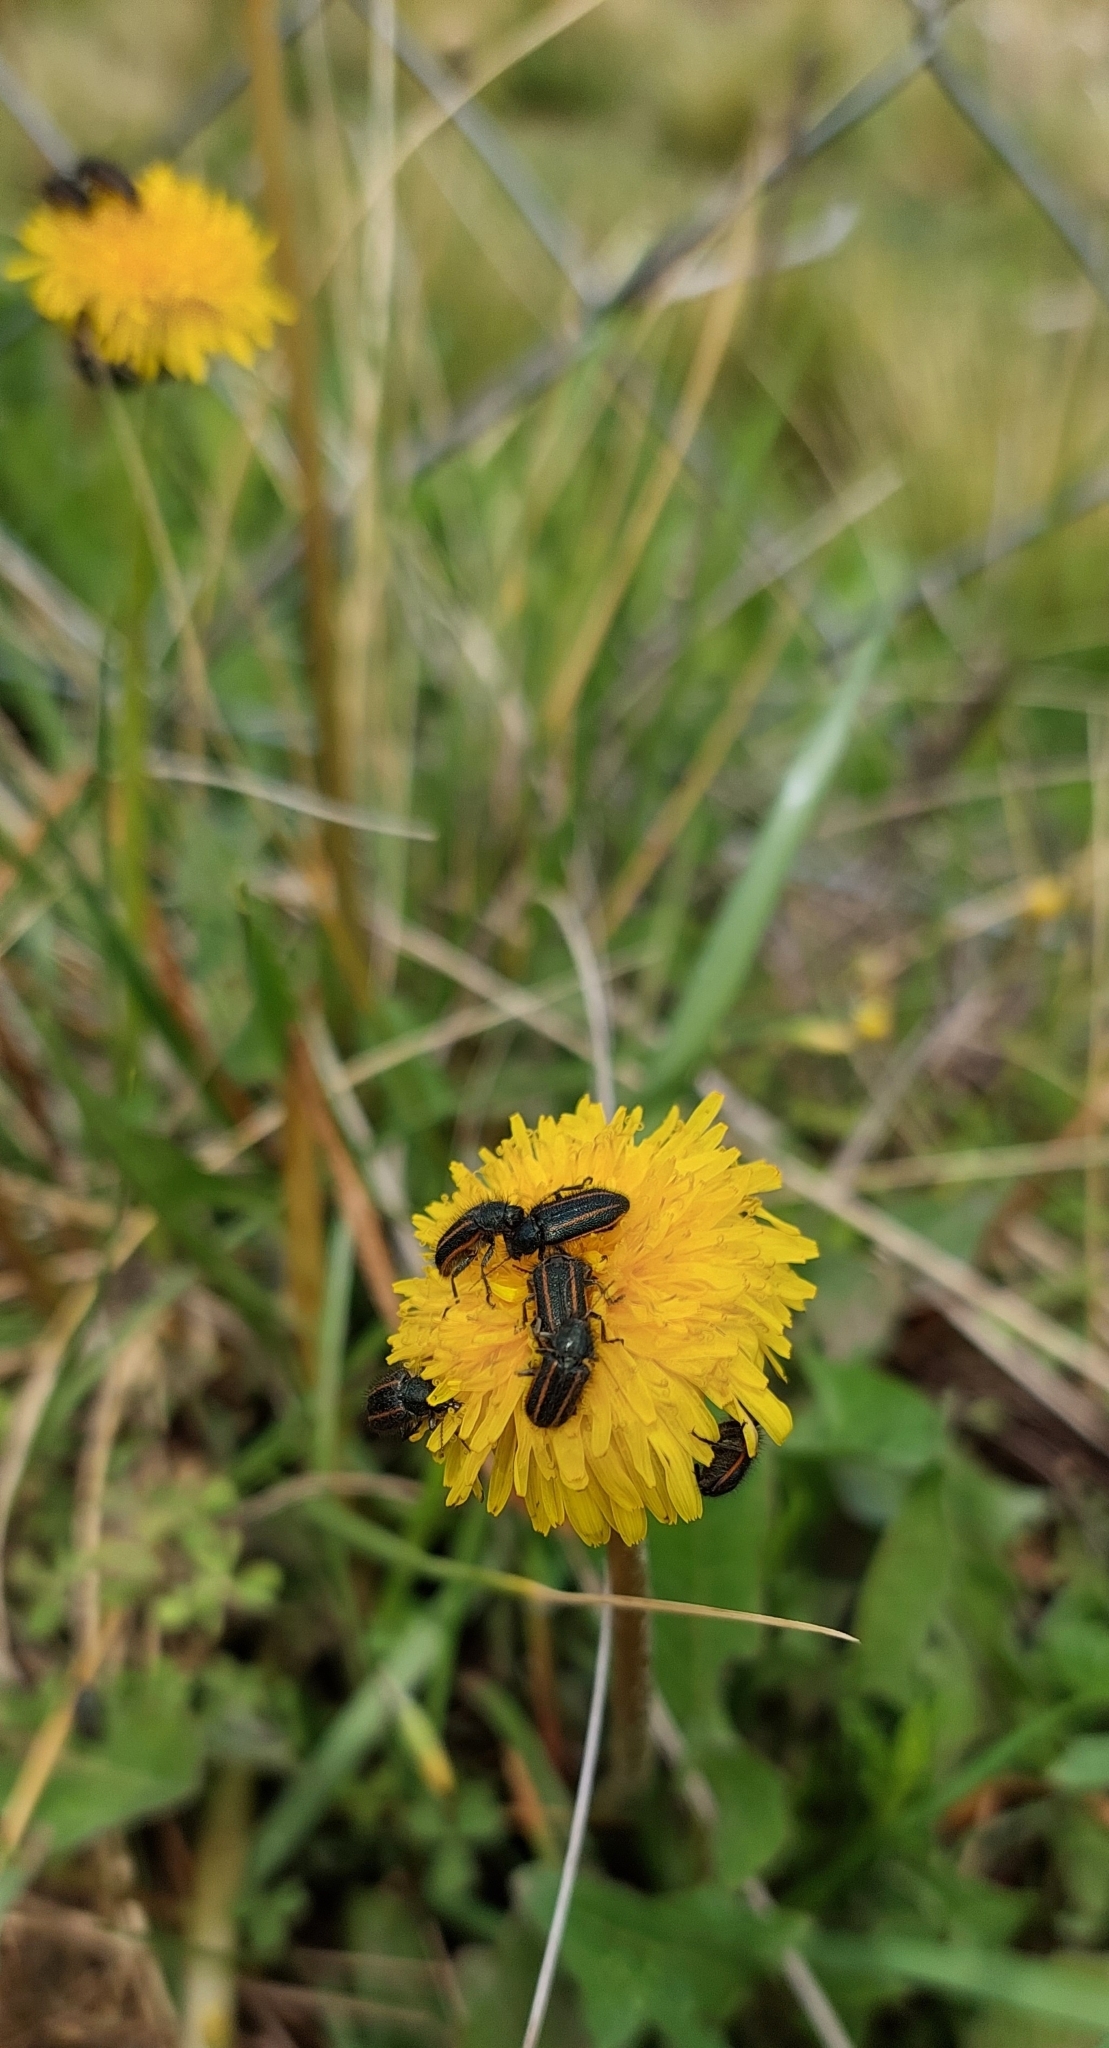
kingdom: Animalia
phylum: Arthropoda
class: Insecta
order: Coleoptera
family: Melyridae
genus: Astylus
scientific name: Astylus
